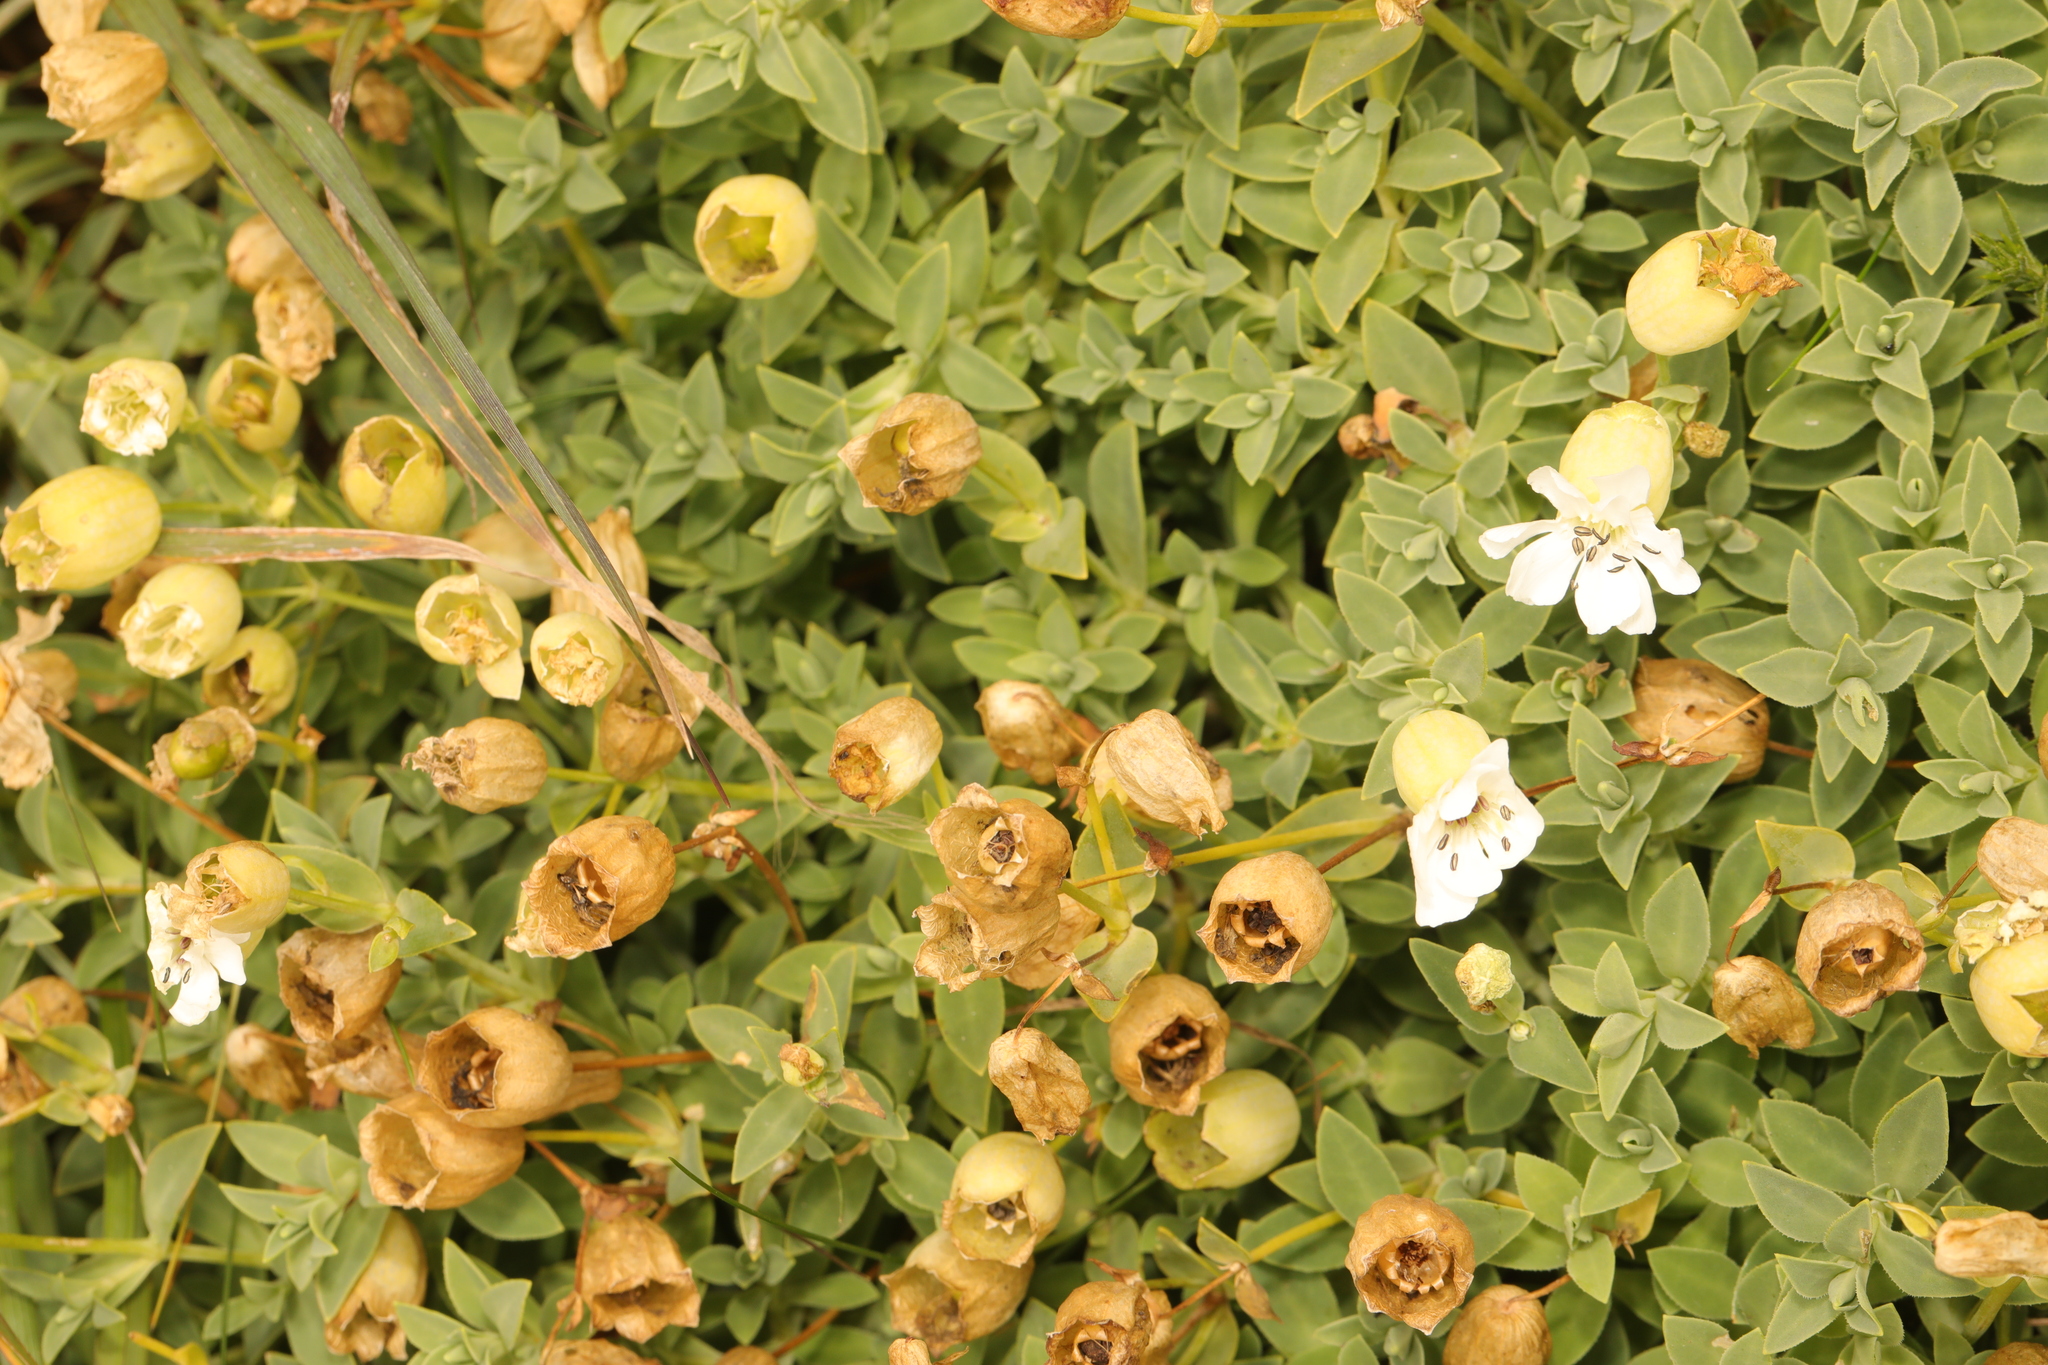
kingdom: Plantae
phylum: Tracheophyta
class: Magnoliopsida
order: Caryophyllales
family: Caryophyllaceae
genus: Silene
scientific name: Silene uniflora
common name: Sea campion
